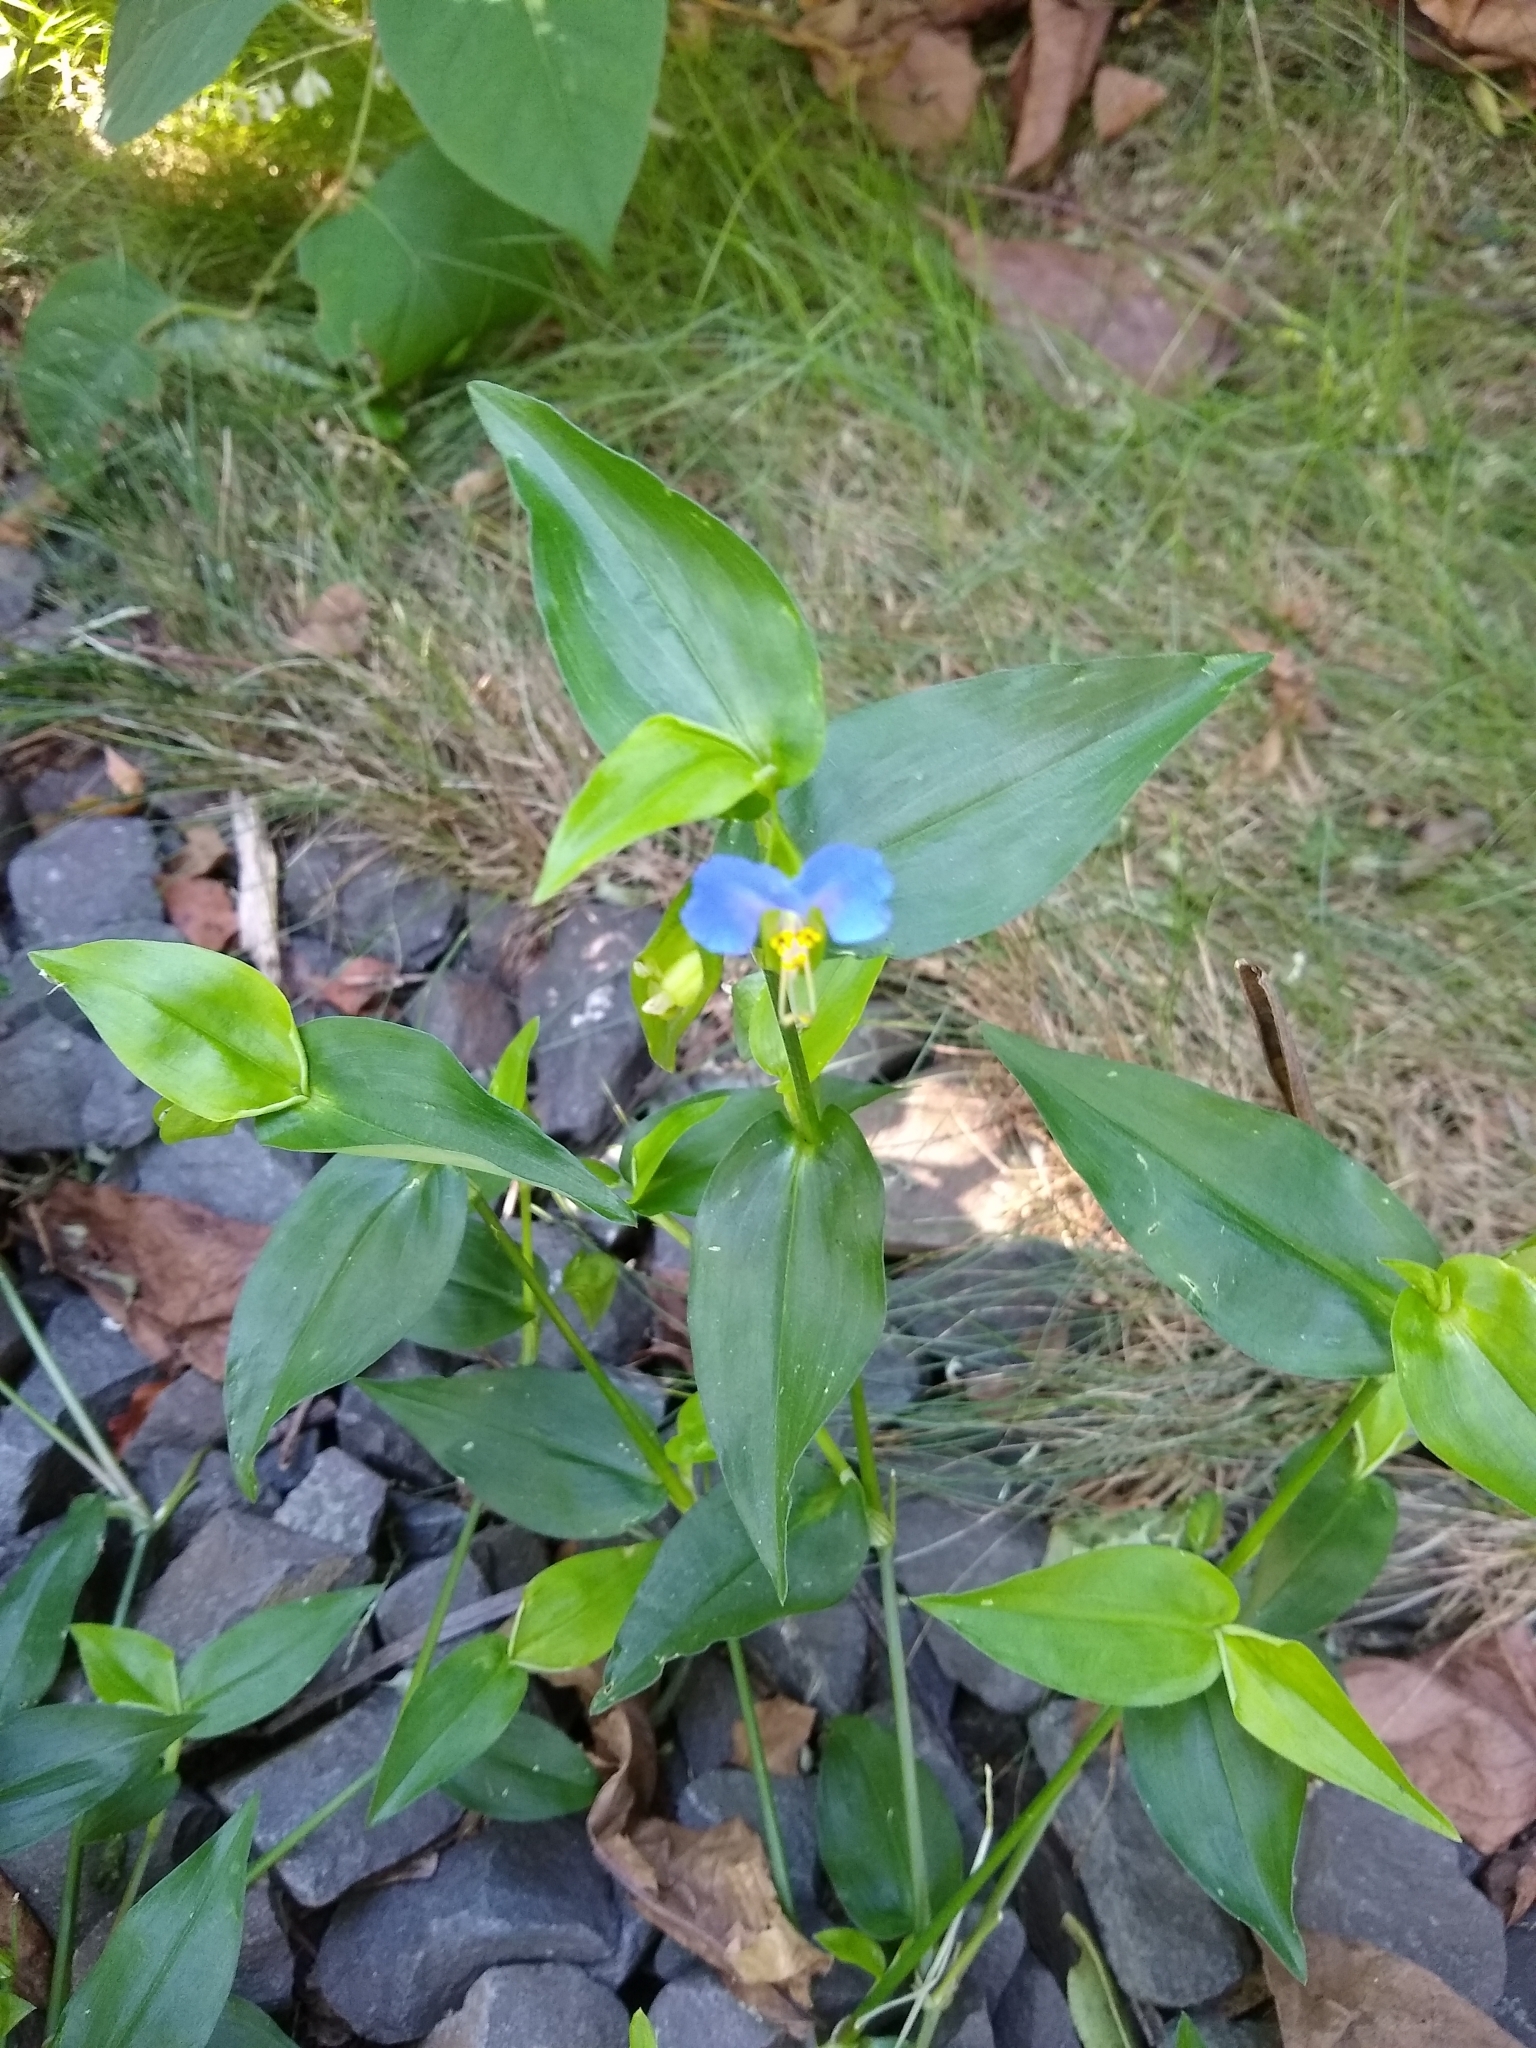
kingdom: Plantae
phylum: Tracheophyta
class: Liliopsida
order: Commelinales
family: Commelinaceae
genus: Commelina
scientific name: Commelina communis
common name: Asiatic dayflower
